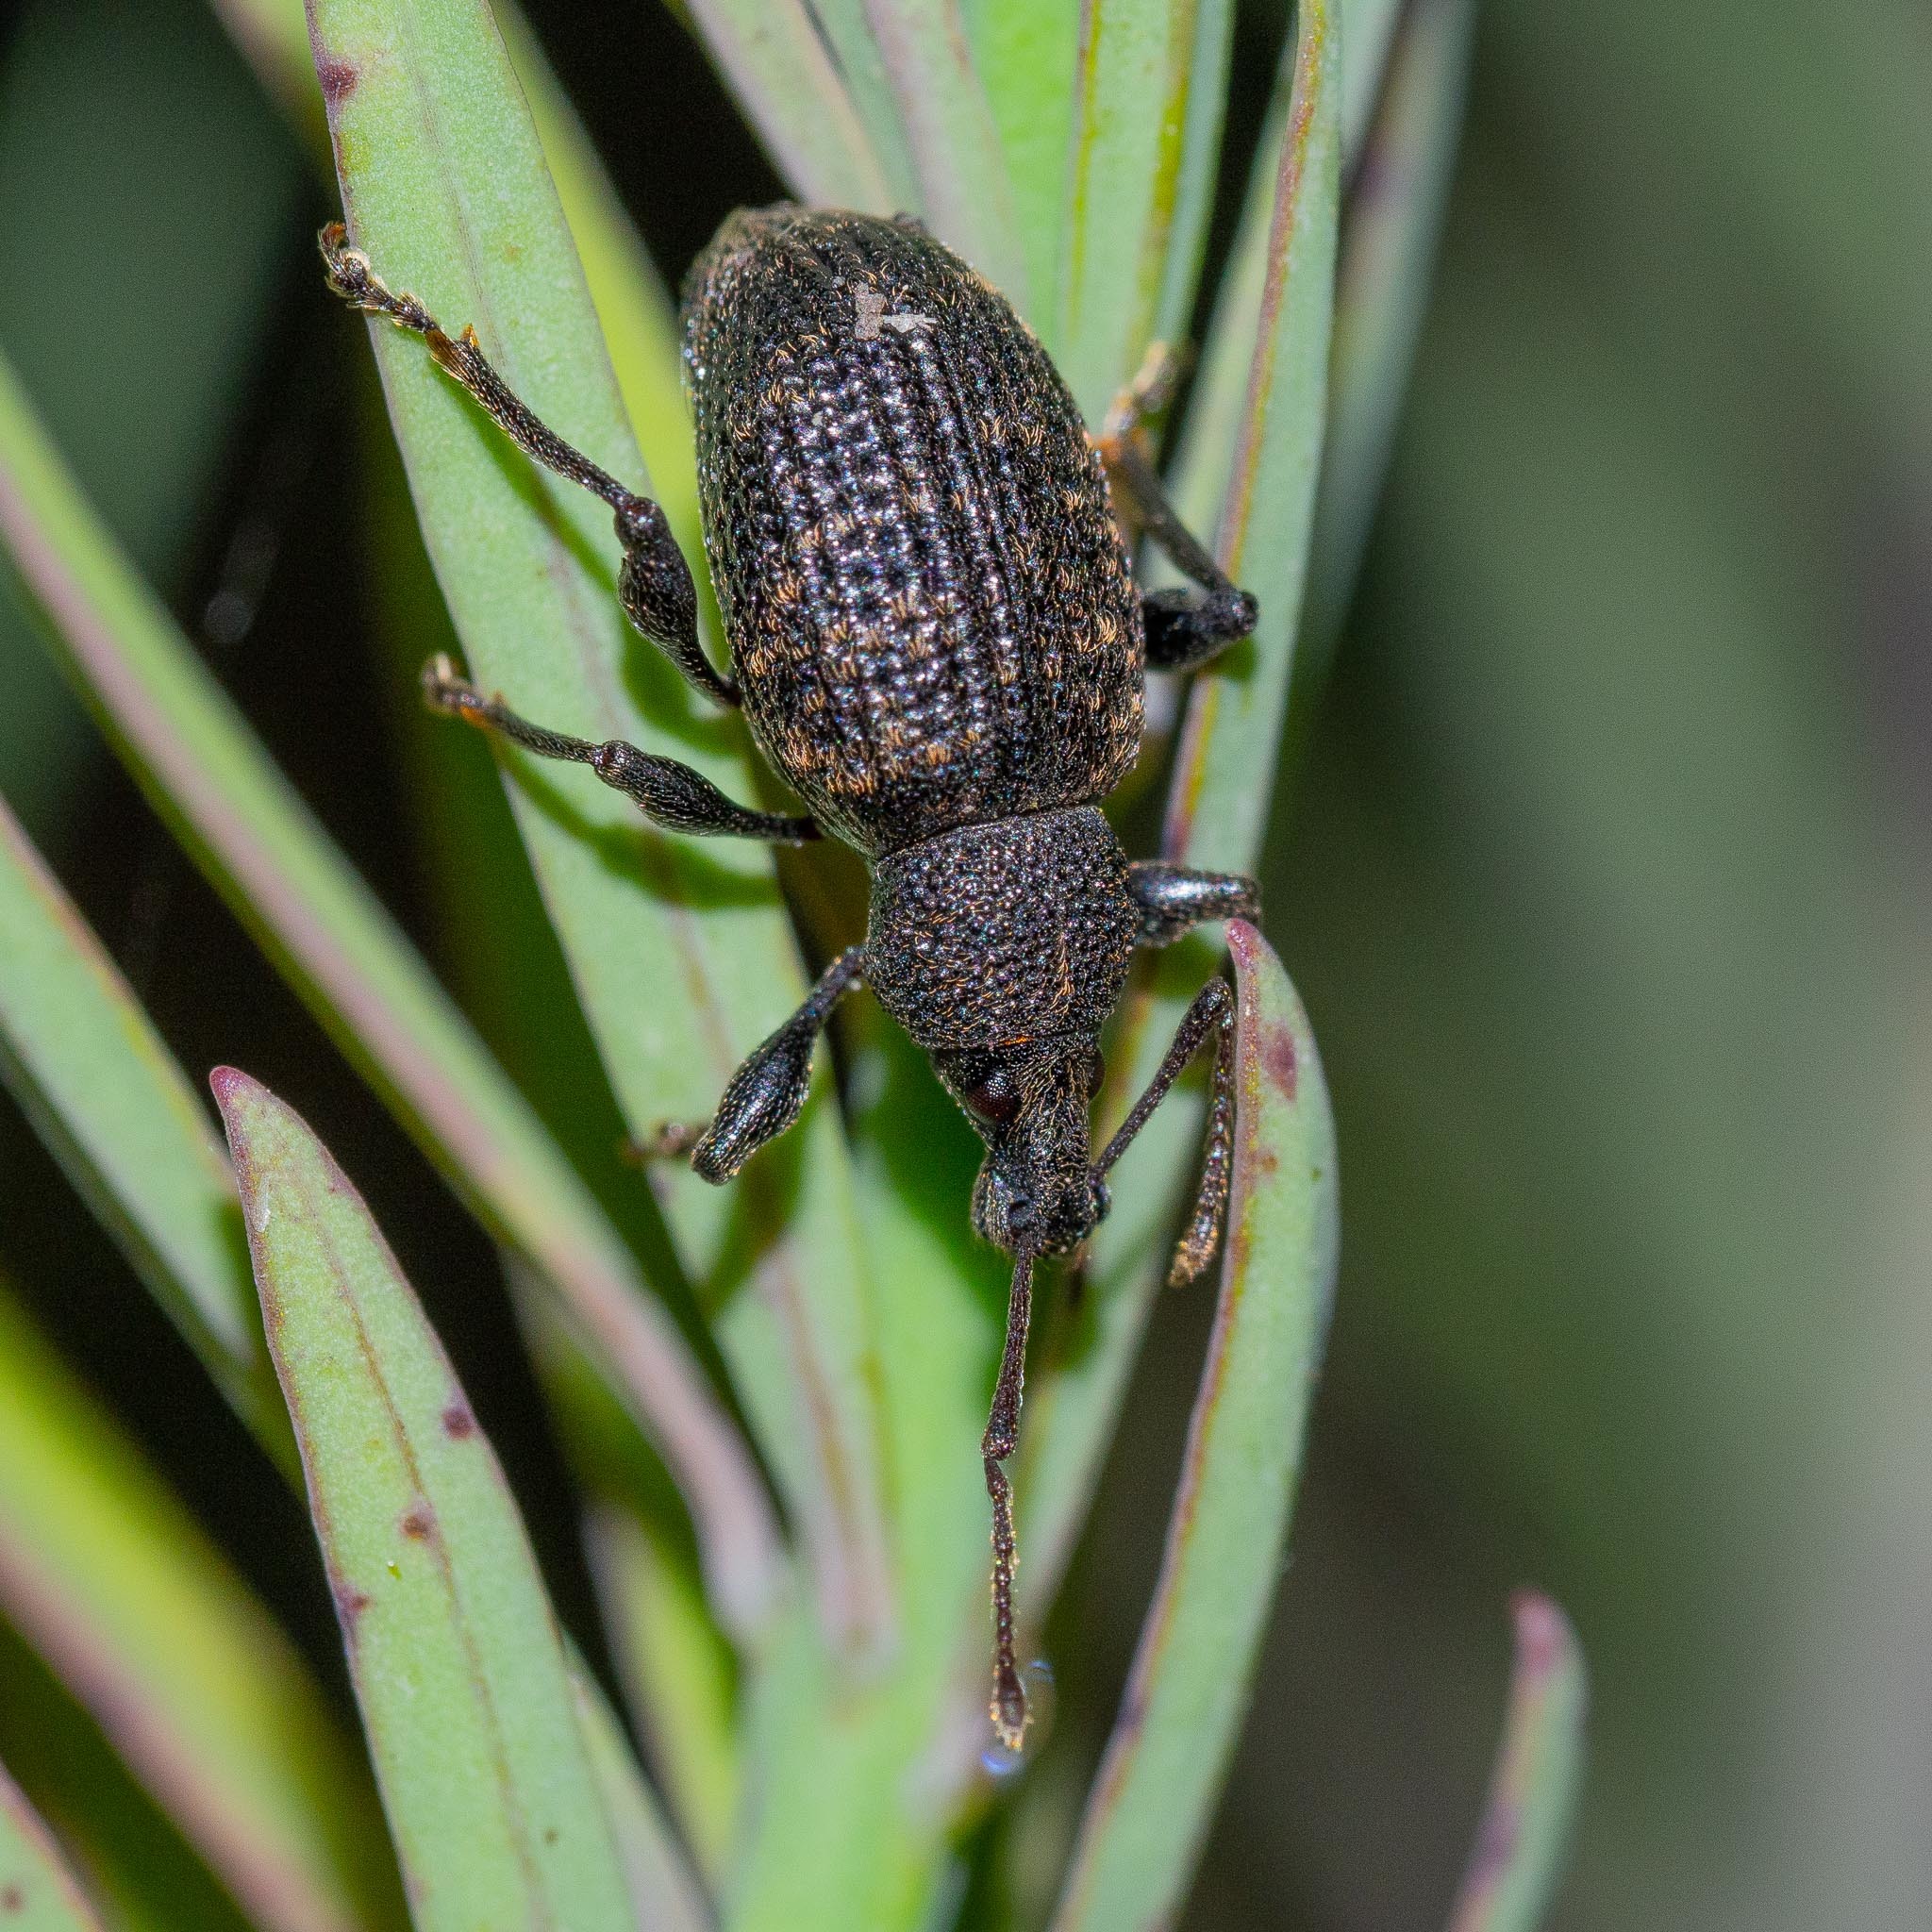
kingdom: Animalia
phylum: Arthropoda
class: Insecta
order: Coleoptera
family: Curculionidae
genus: Otiorhynchus
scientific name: Otiorhynchus sulcatus
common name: Black vine weevil
